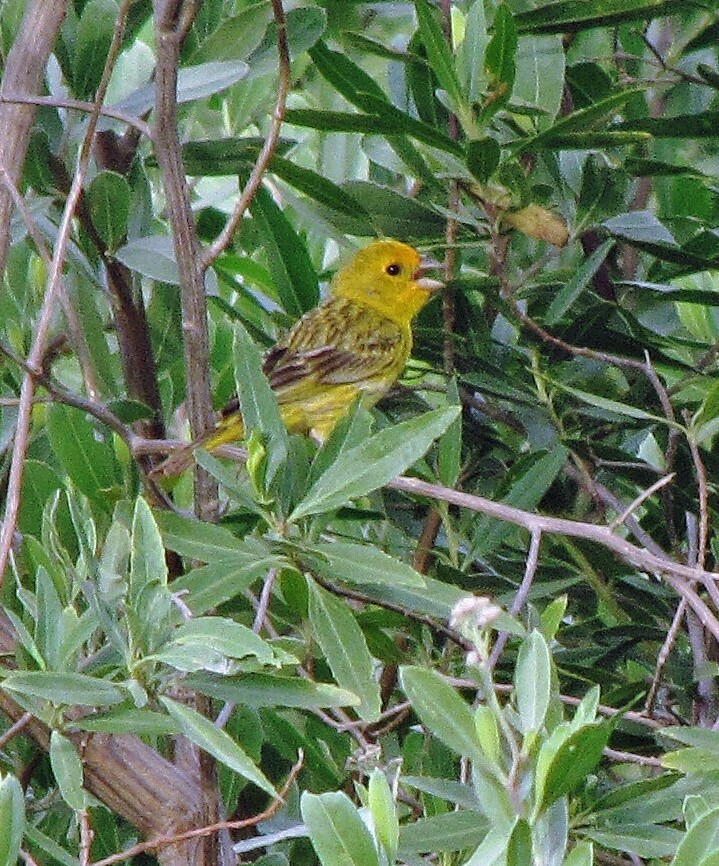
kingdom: Animalia
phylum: Chordata
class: Aves
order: Passeriformes
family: Thraupidae
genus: Sicalis
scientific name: Sicalis flaveola
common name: Saffron finch
